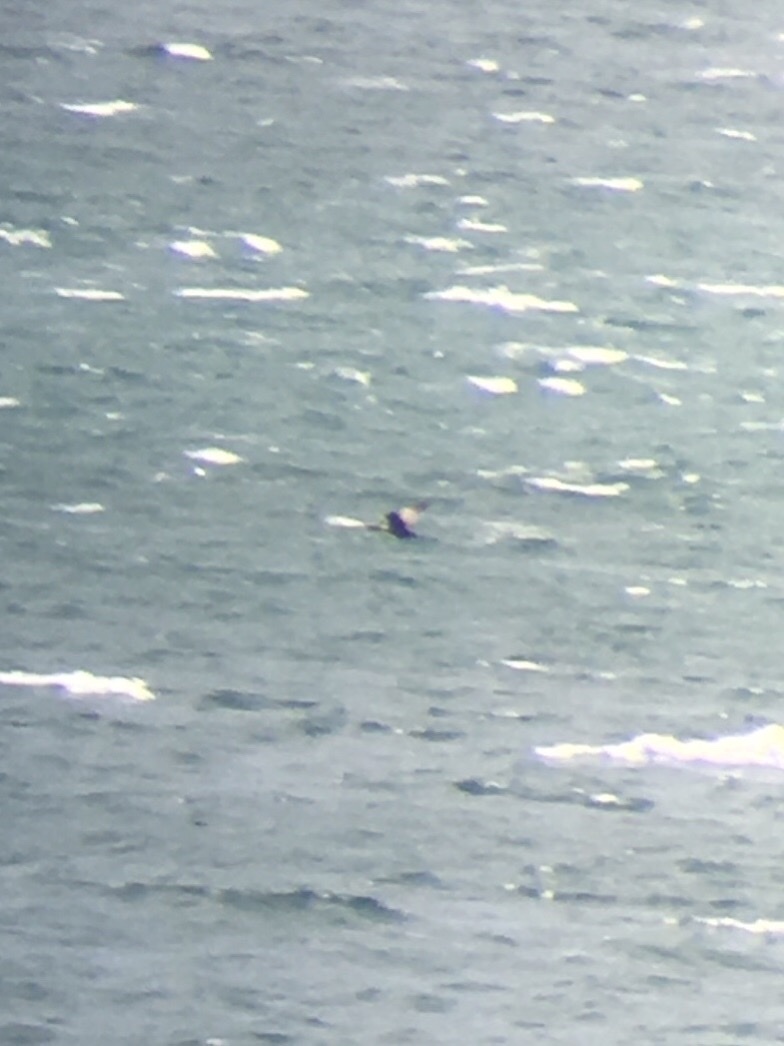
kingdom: Animalia
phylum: Chordata
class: Aves
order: Suliformes
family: Phalacrocoracidae
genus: Phalacrocorax
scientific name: Phalacrocorax punctatus
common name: Spotted shag
